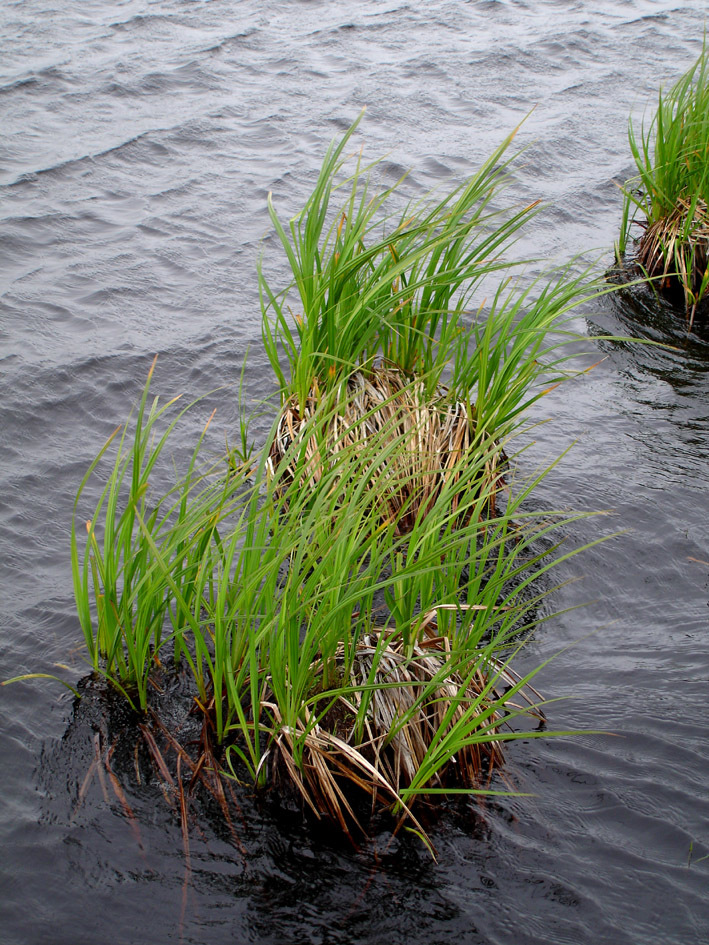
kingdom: Plantae
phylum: Tracheophyta
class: Liliopsida
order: Poales
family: Cyperaceae
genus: Carex
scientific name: Carex
